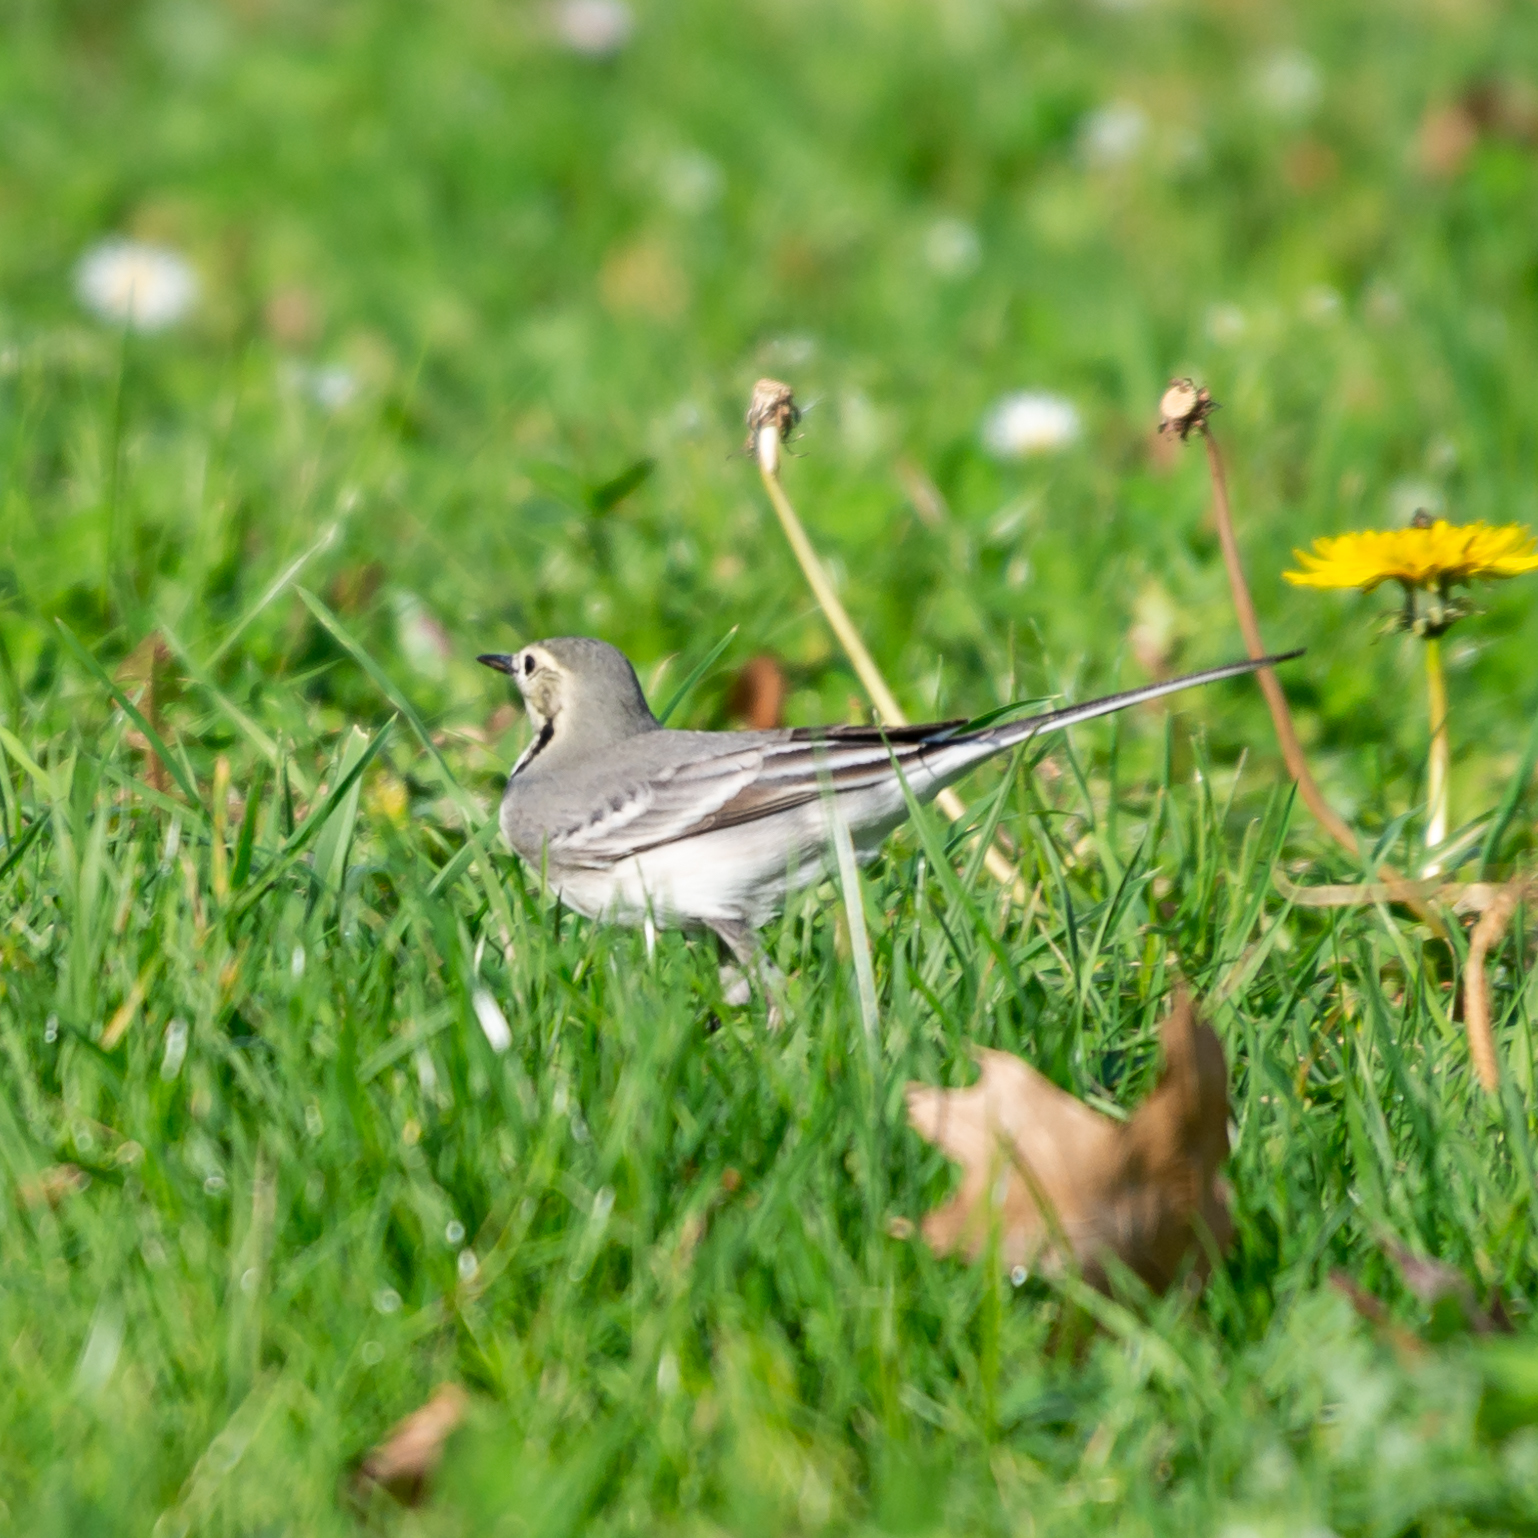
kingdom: Animalia
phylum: Chordata
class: Aves
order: Passeriformes
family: Motacillidae
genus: Motacilla
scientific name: Motacilla alba
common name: White wagtail
